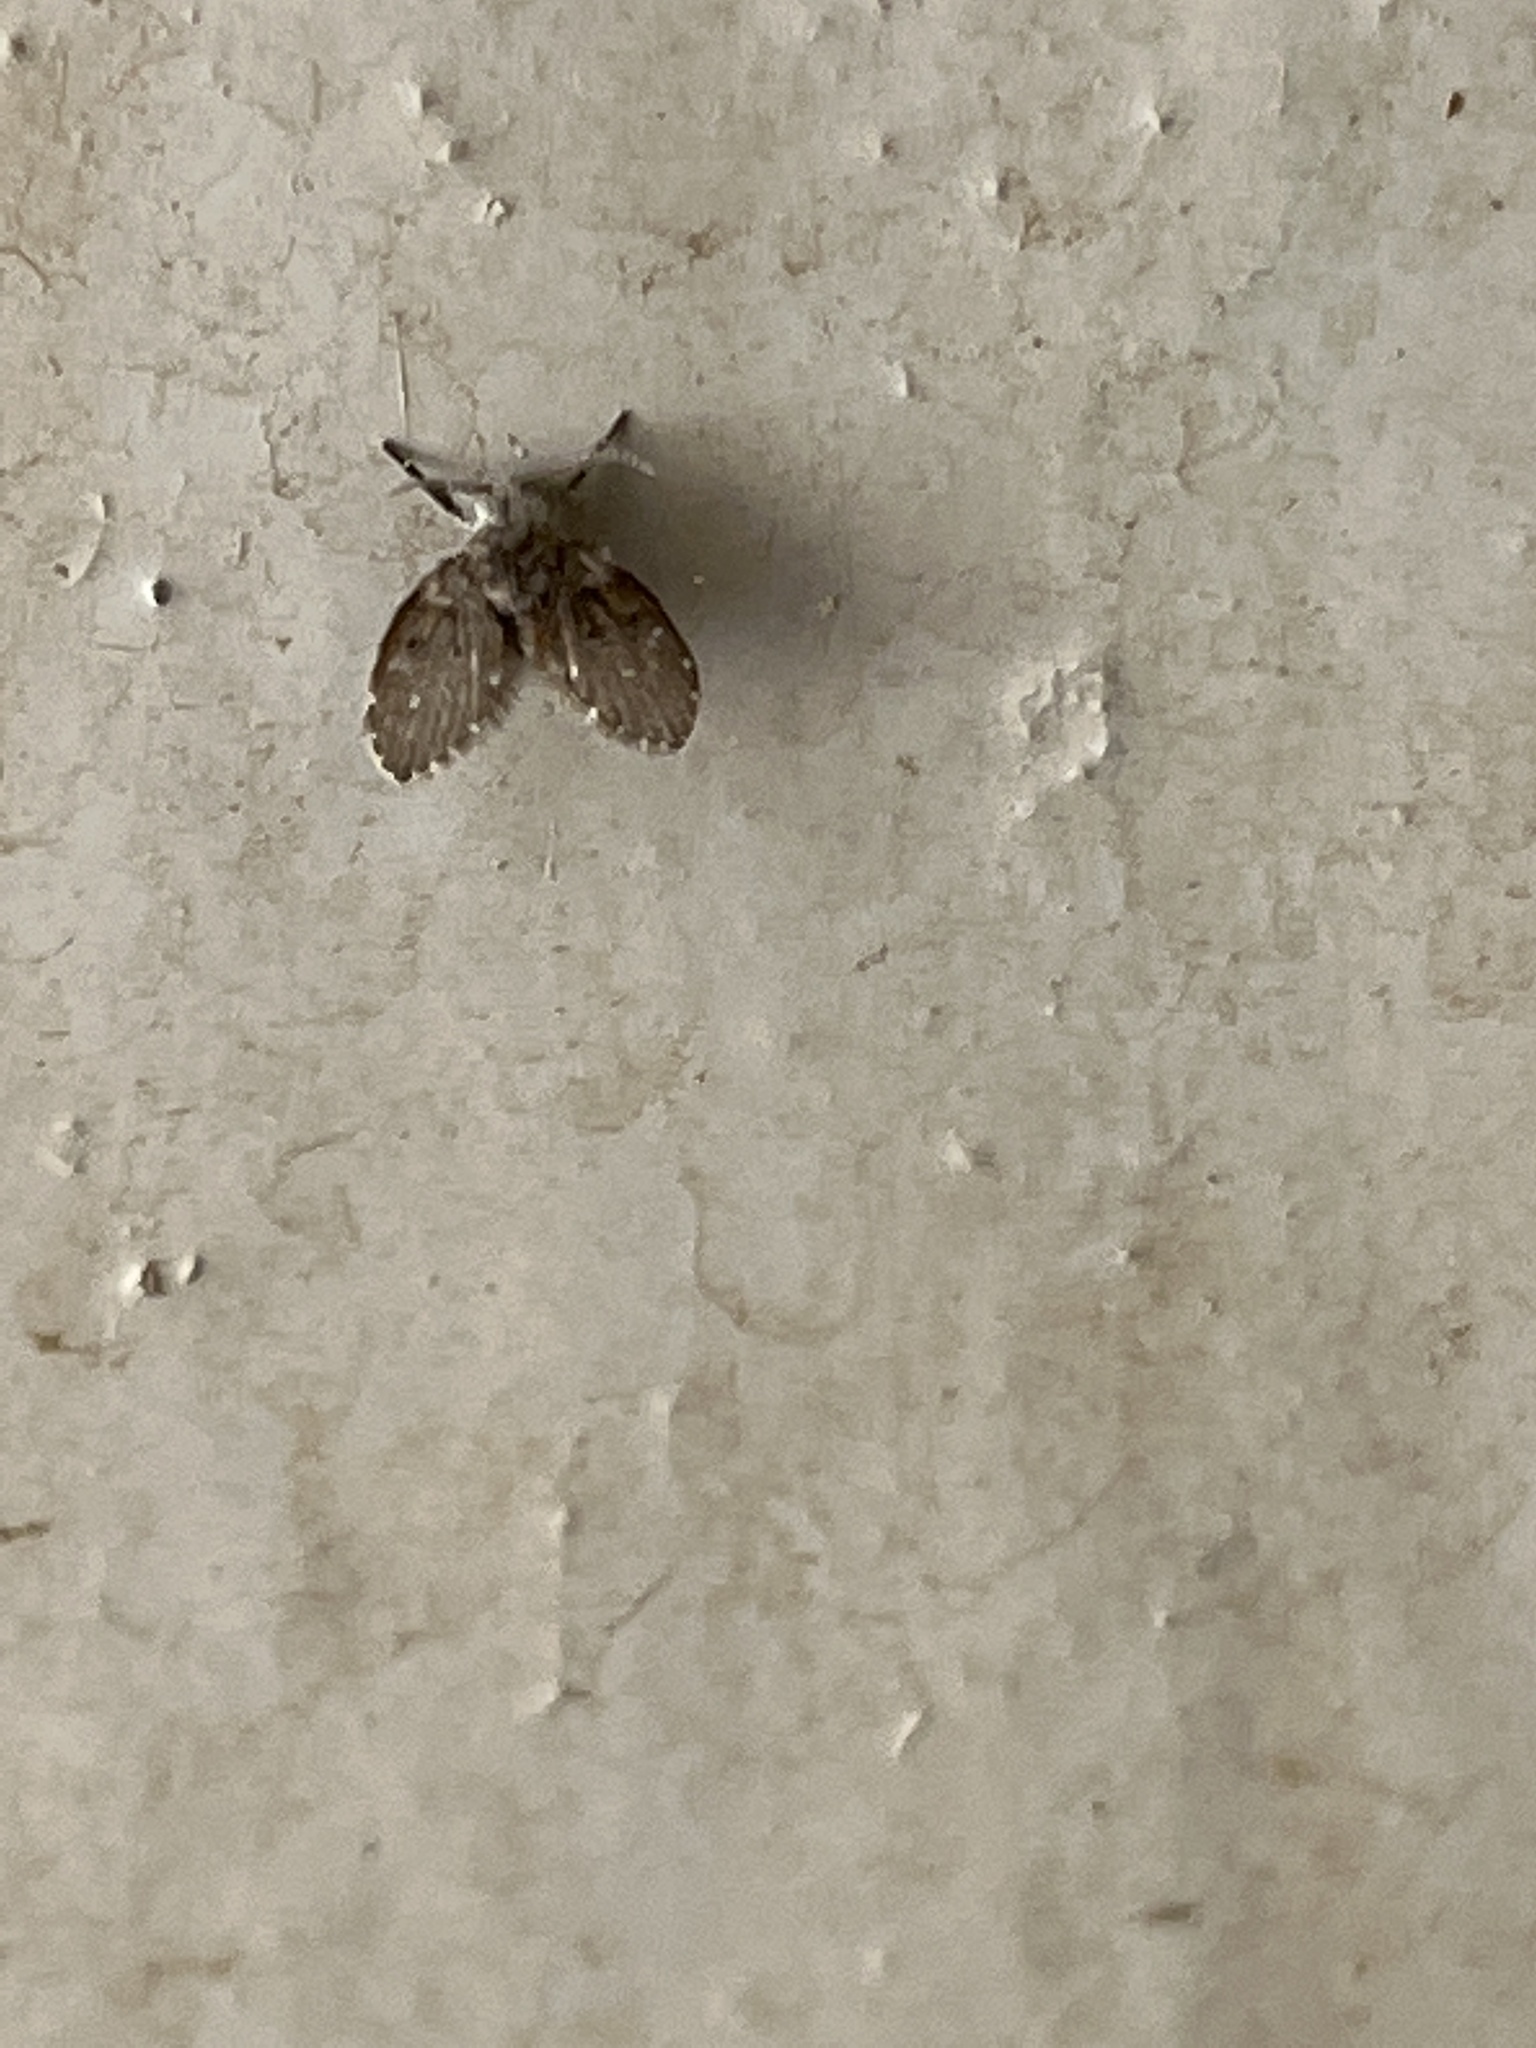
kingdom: Animalia
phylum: Arthropoda
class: Insecta
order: Diptera
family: Psychodidae
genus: Clogmia
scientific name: Clogmia albipunctatus
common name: White-spotted moth fly
